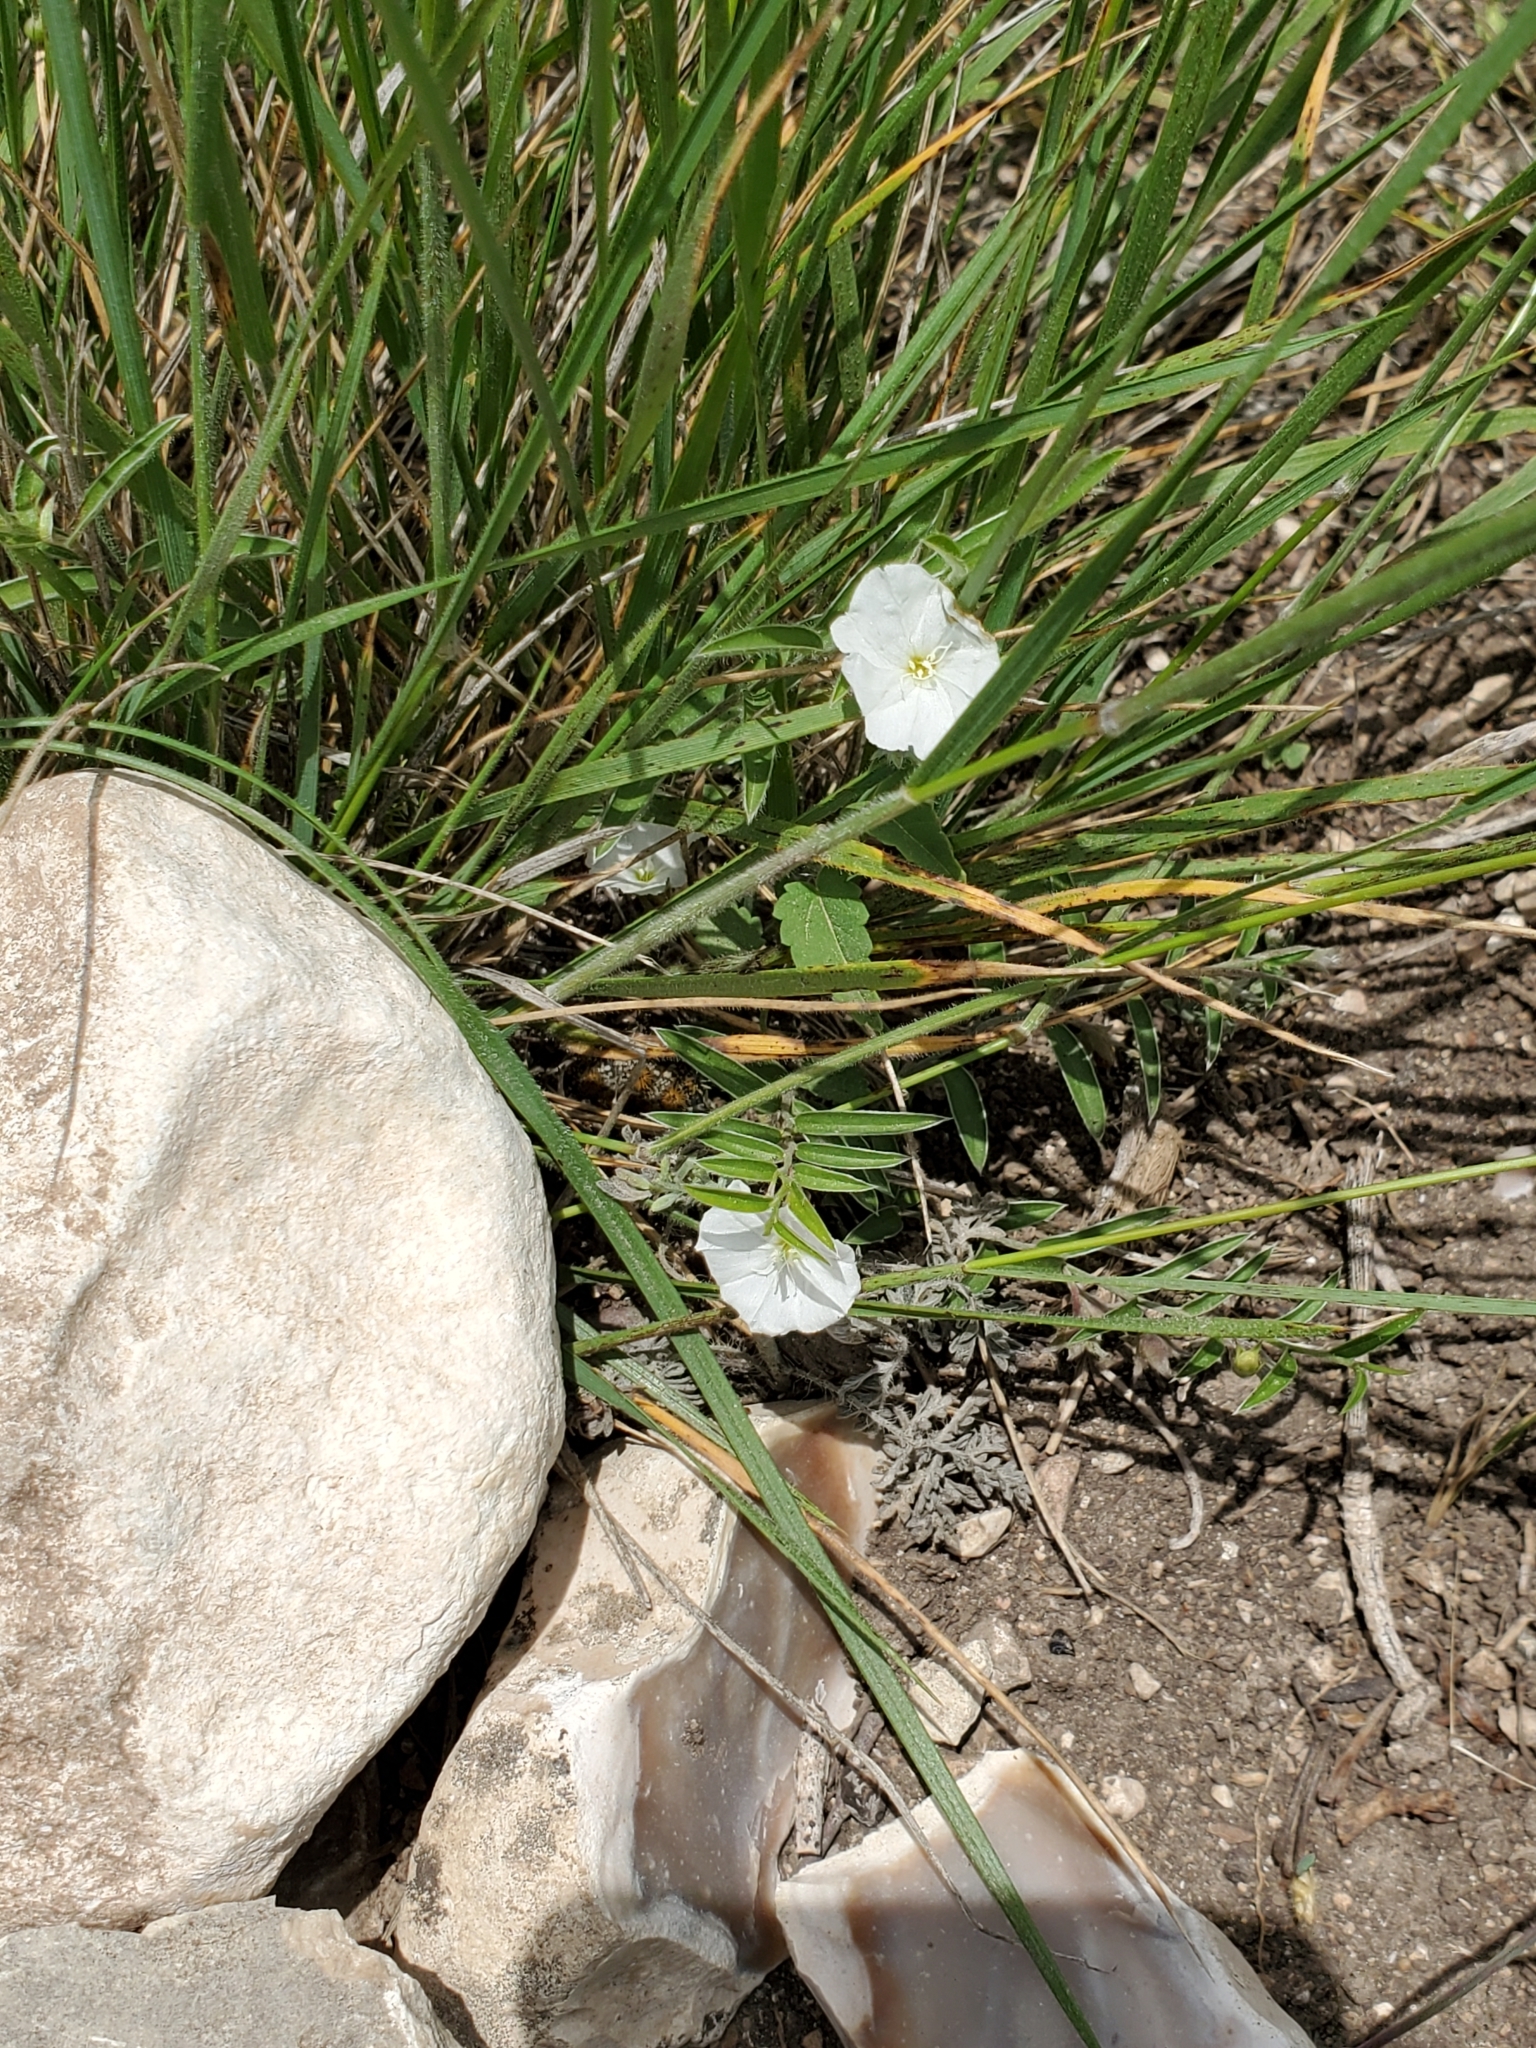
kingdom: Plantae
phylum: Tracheophyta
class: Magnoliopsida
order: Solanales
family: Convolvulaceae
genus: Evolvulus
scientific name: Evolvulus sericeus
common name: Blue dots
